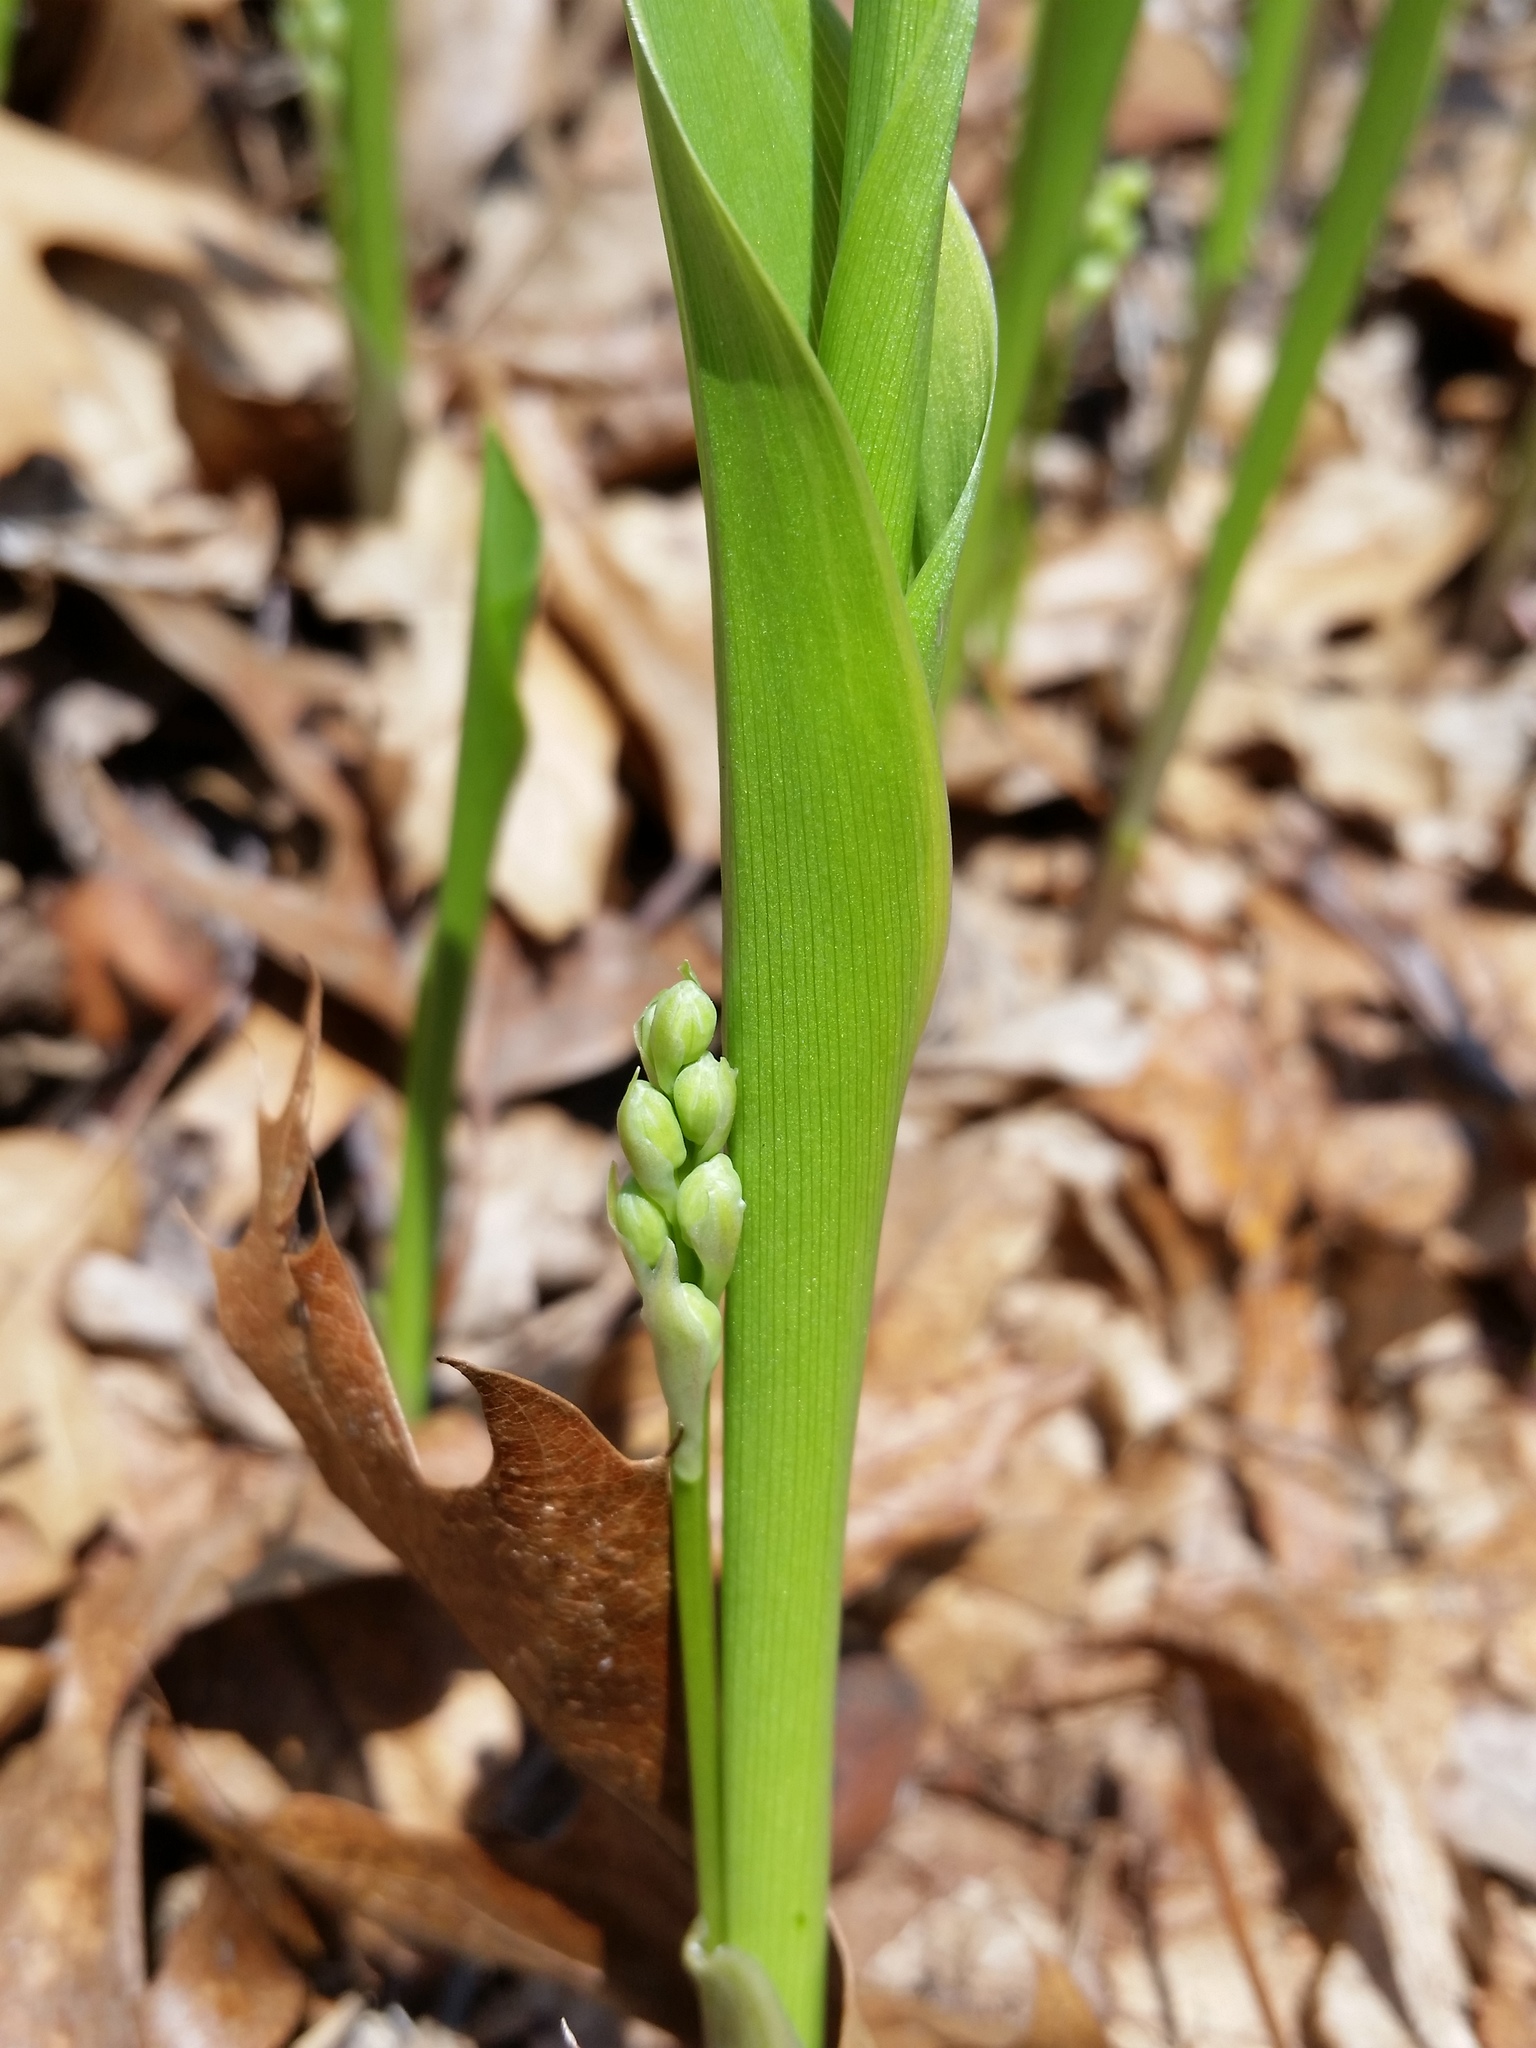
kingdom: Plantae
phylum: Tracheophyta
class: Liliopsida
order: Asparagales
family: Asparagaceae
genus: Convallaria
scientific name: Convallaria majalis
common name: Lily-of-the-valley
